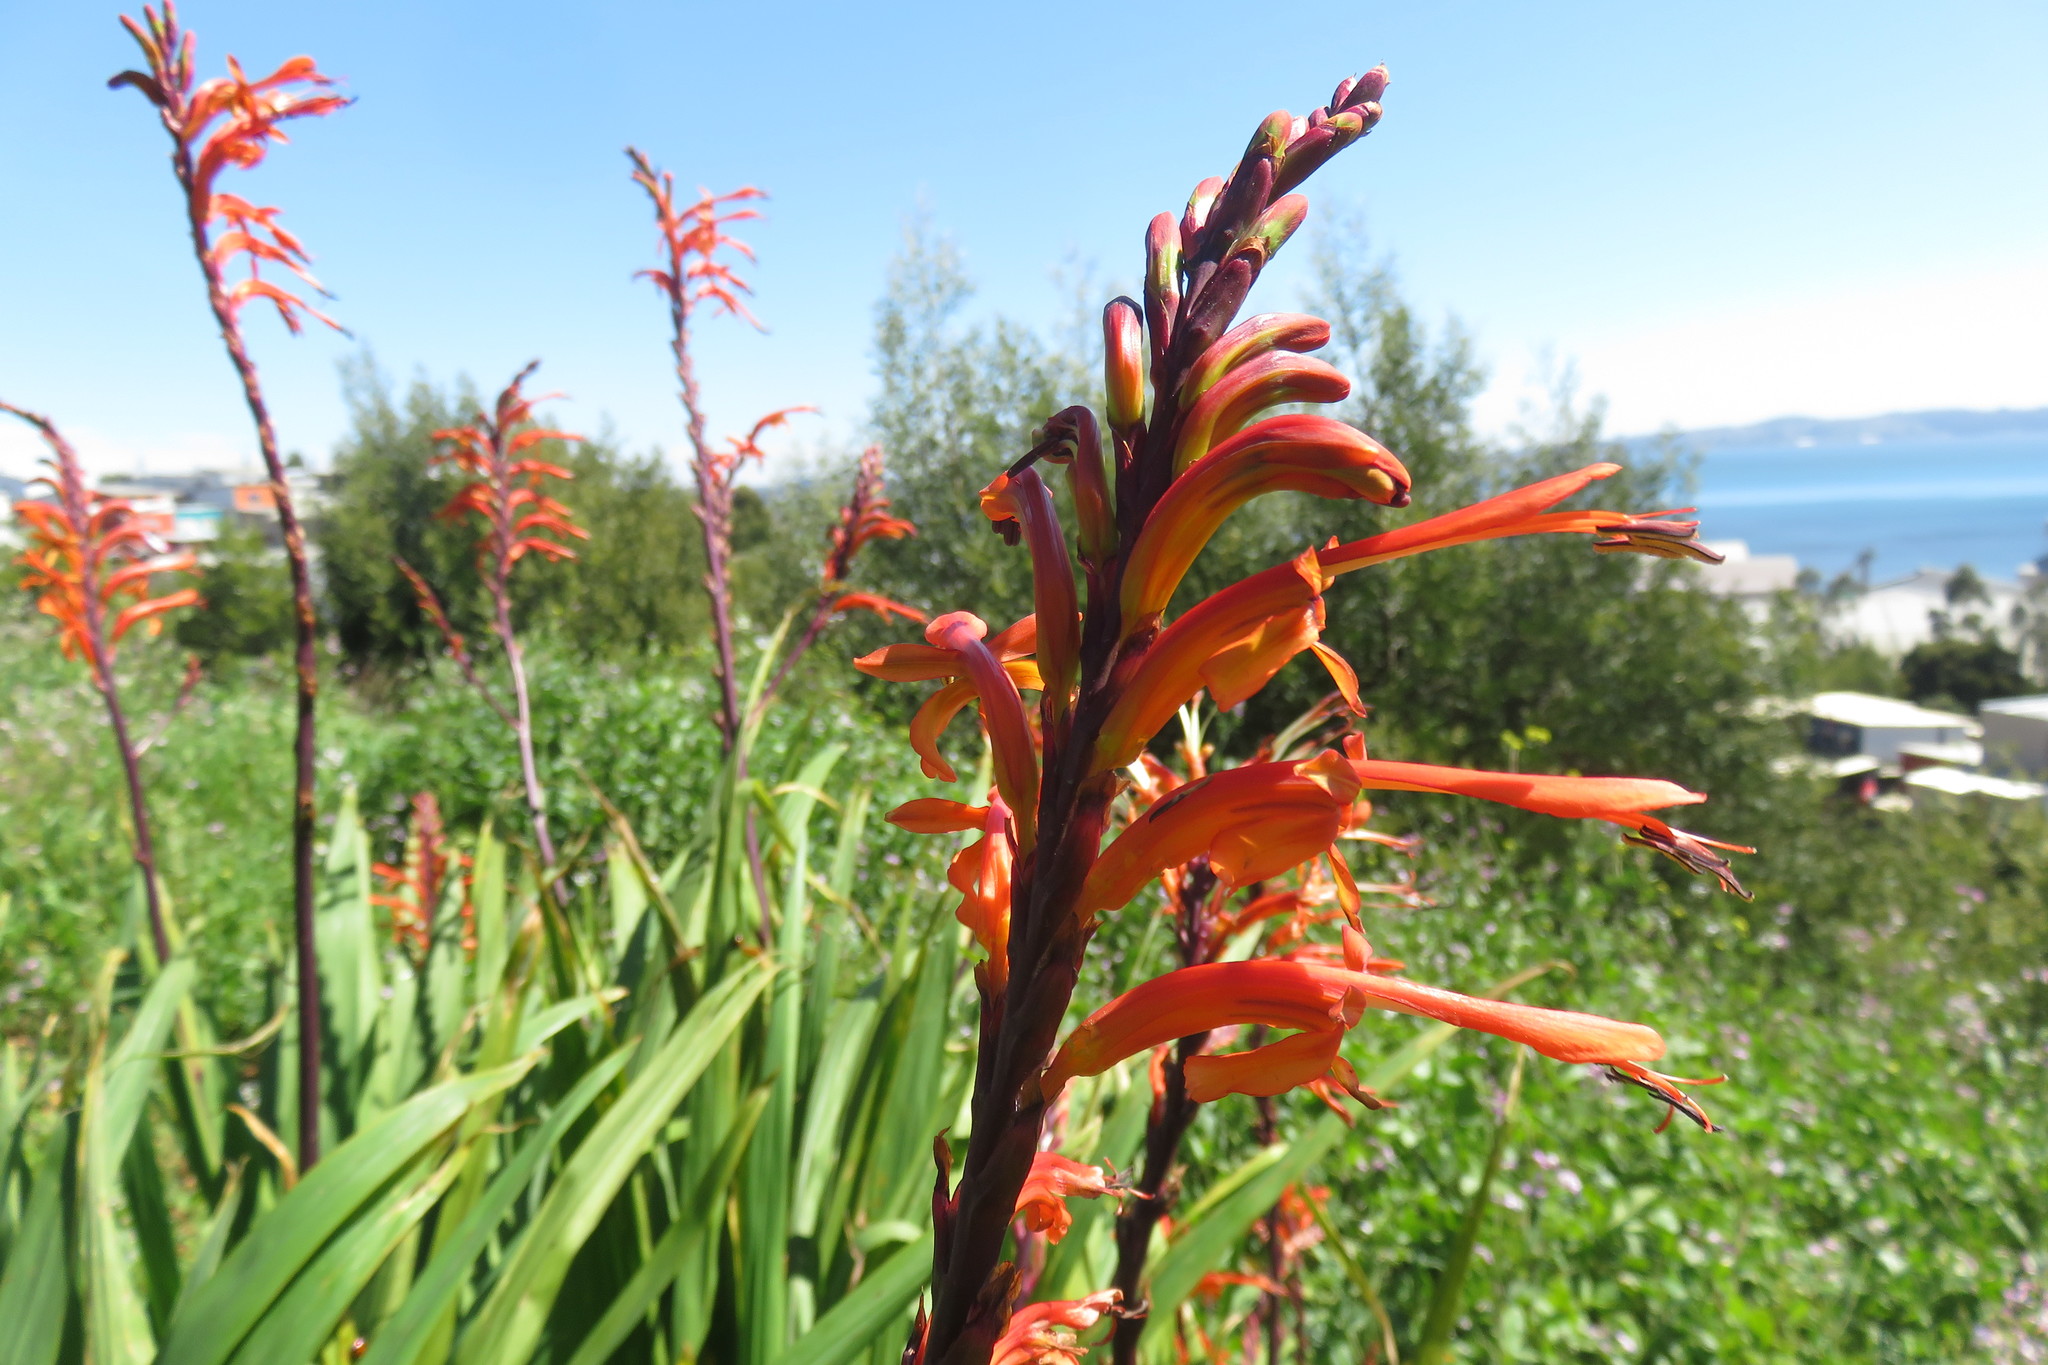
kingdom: Plantae
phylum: Tracheophyta
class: Liliopsida
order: Asparagales
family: Iridaceae
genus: Chasmanthe
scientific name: Chasmanthe floribunda
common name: African cornflag
